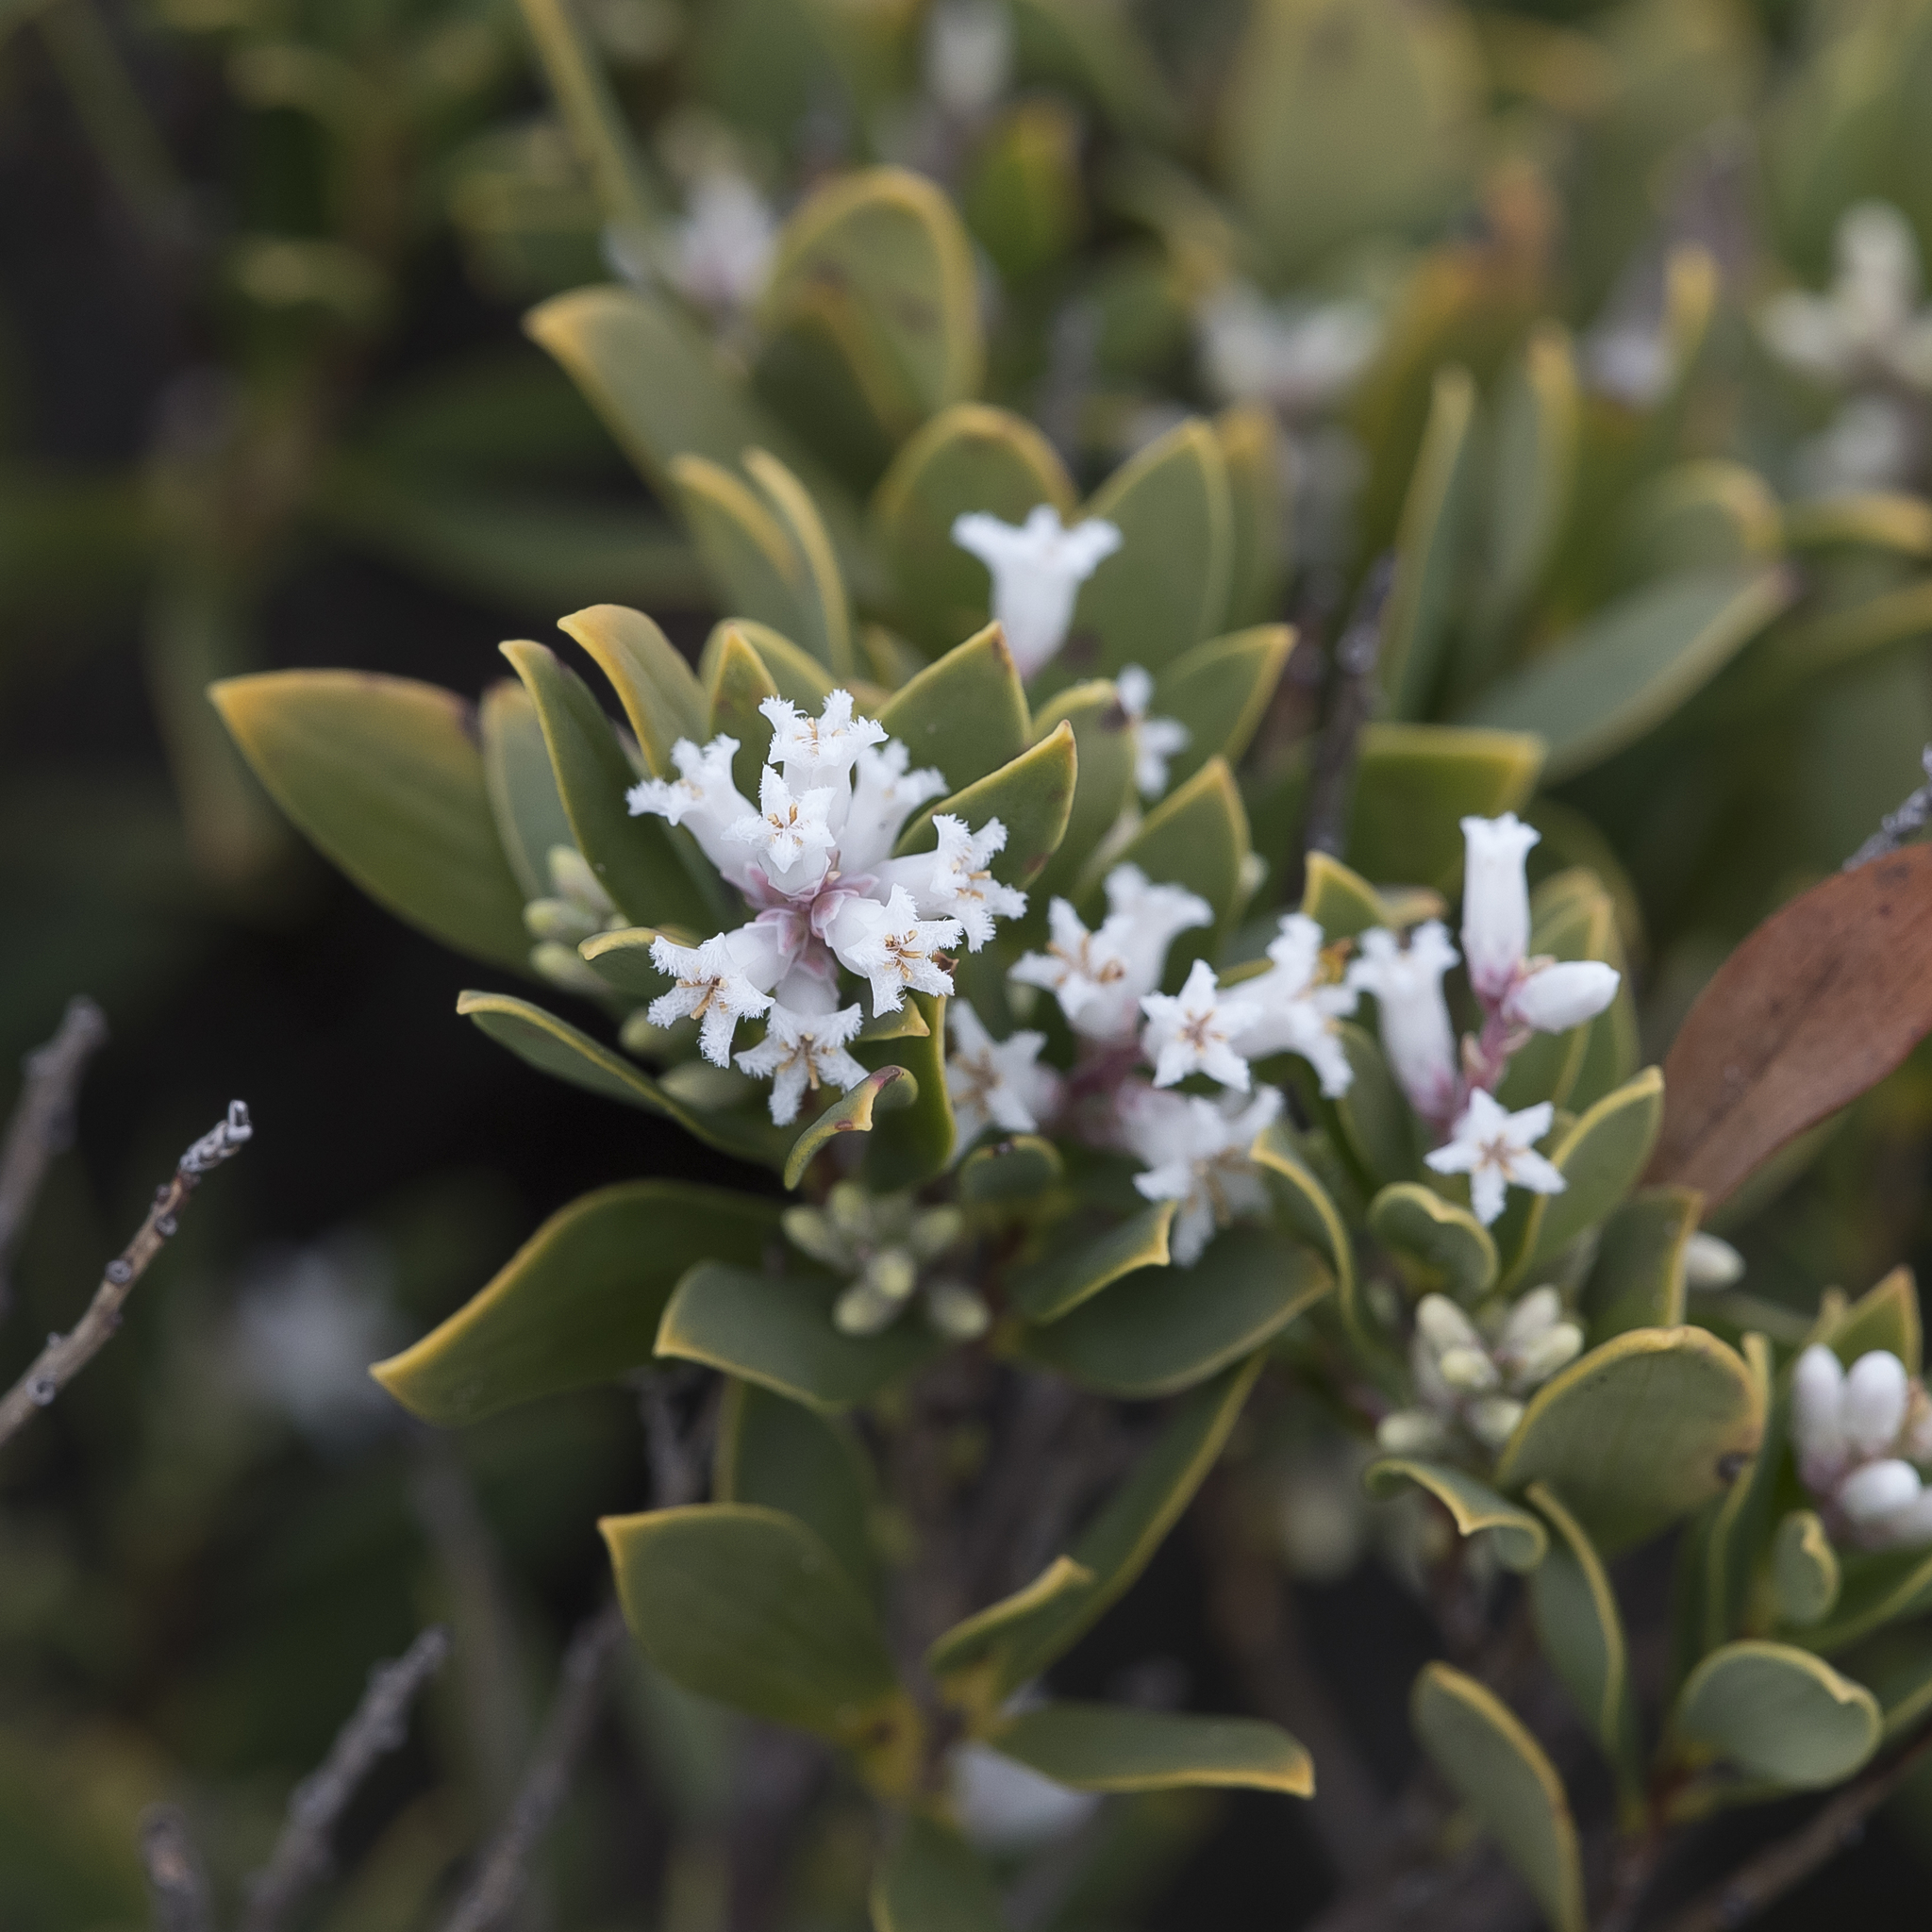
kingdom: Plantae
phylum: Tracheophyta
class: Magnoliopsida
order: Ericales
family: Ericaceae
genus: Leptecophylla
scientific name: Leptecophylla parvifolia
